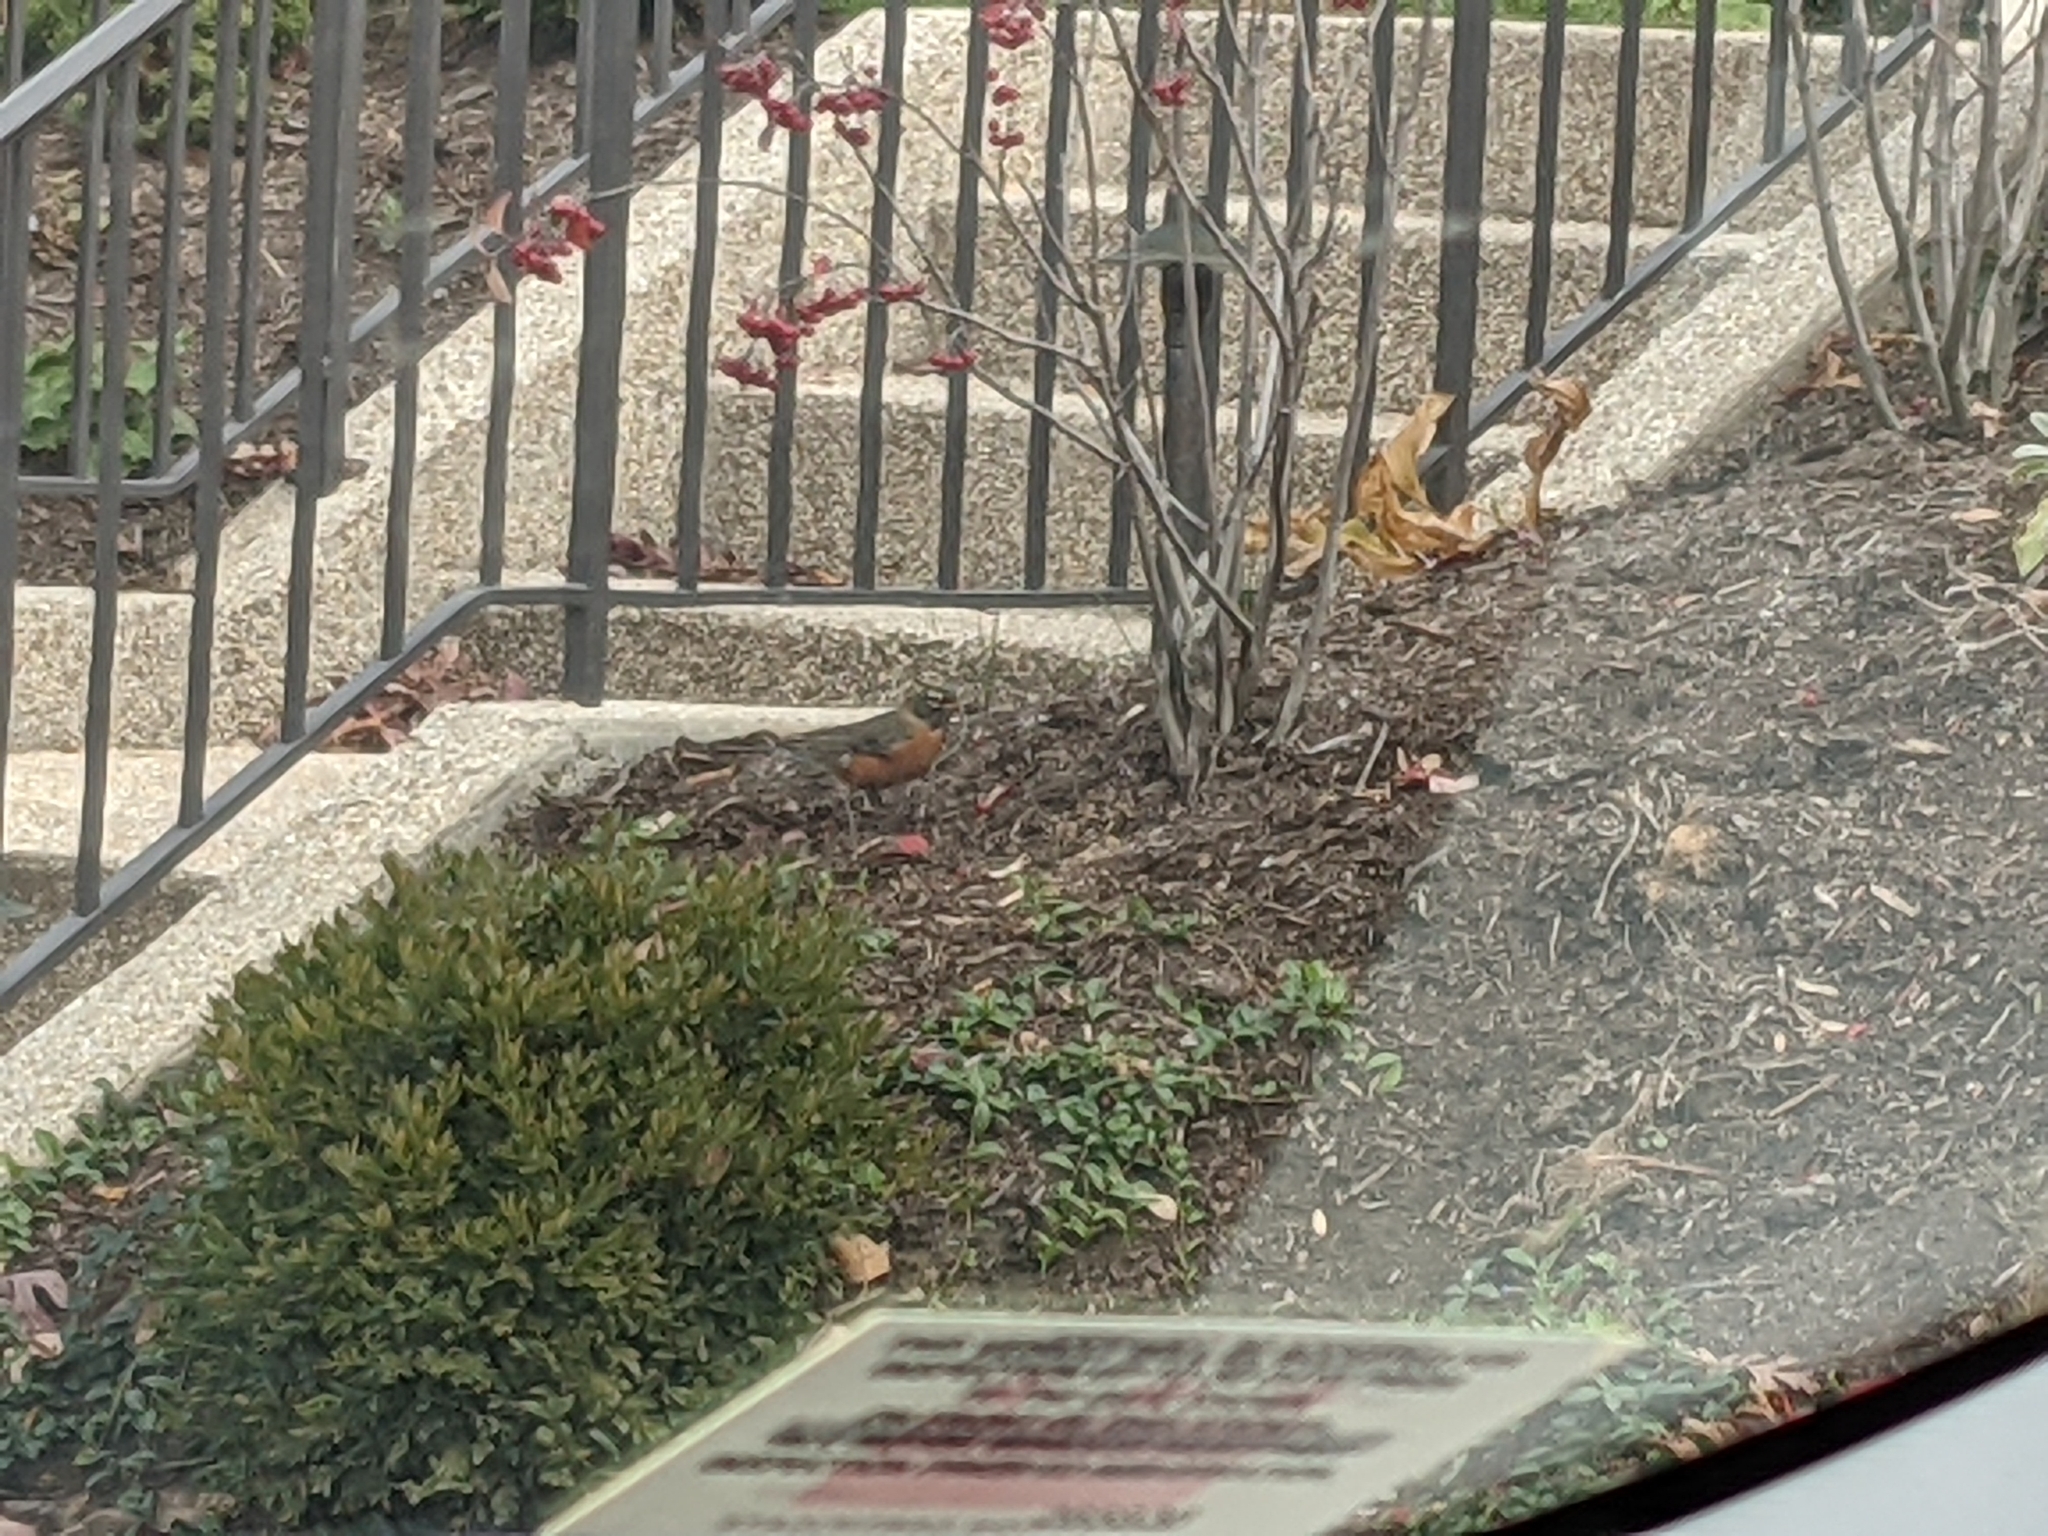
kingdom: Animalia
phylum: Chordata
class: Aves
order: Passeriformes
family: Turdidae
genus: Turdus
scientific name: Turdus migratorius
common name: American robin
